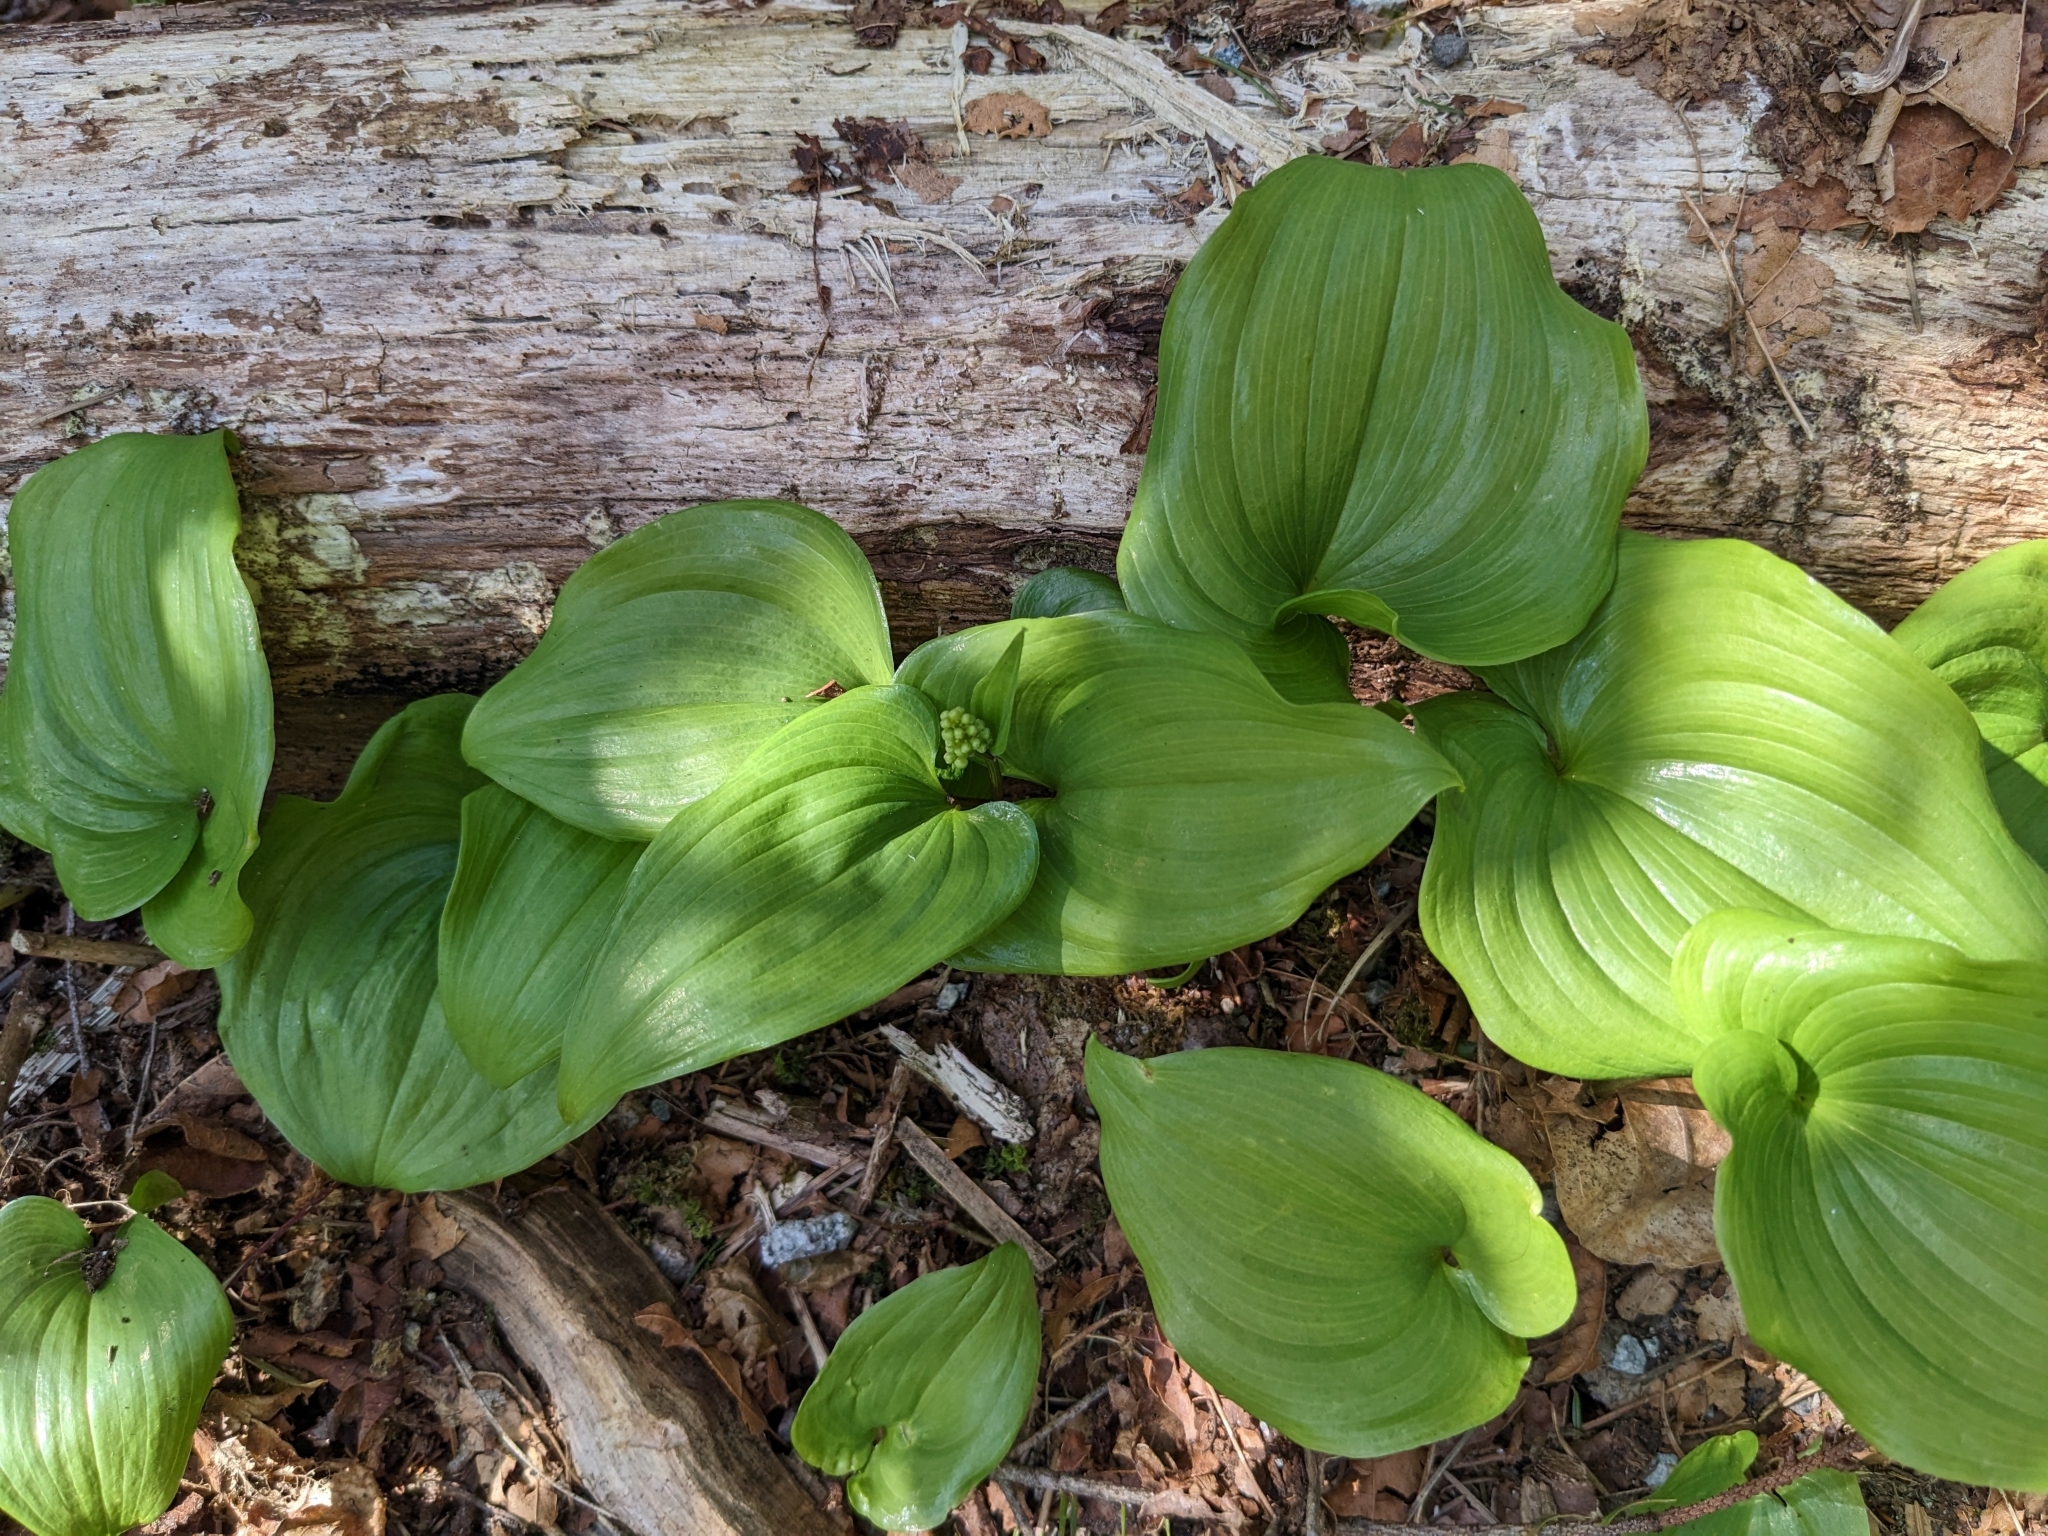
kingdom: Plantae
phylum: Tracheophyta
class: Liliopsida
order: Asparagales
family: Asparagaceae
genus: Maianthemum
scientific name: Maianthemum dilatatum
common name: False lily-of-the-valley
